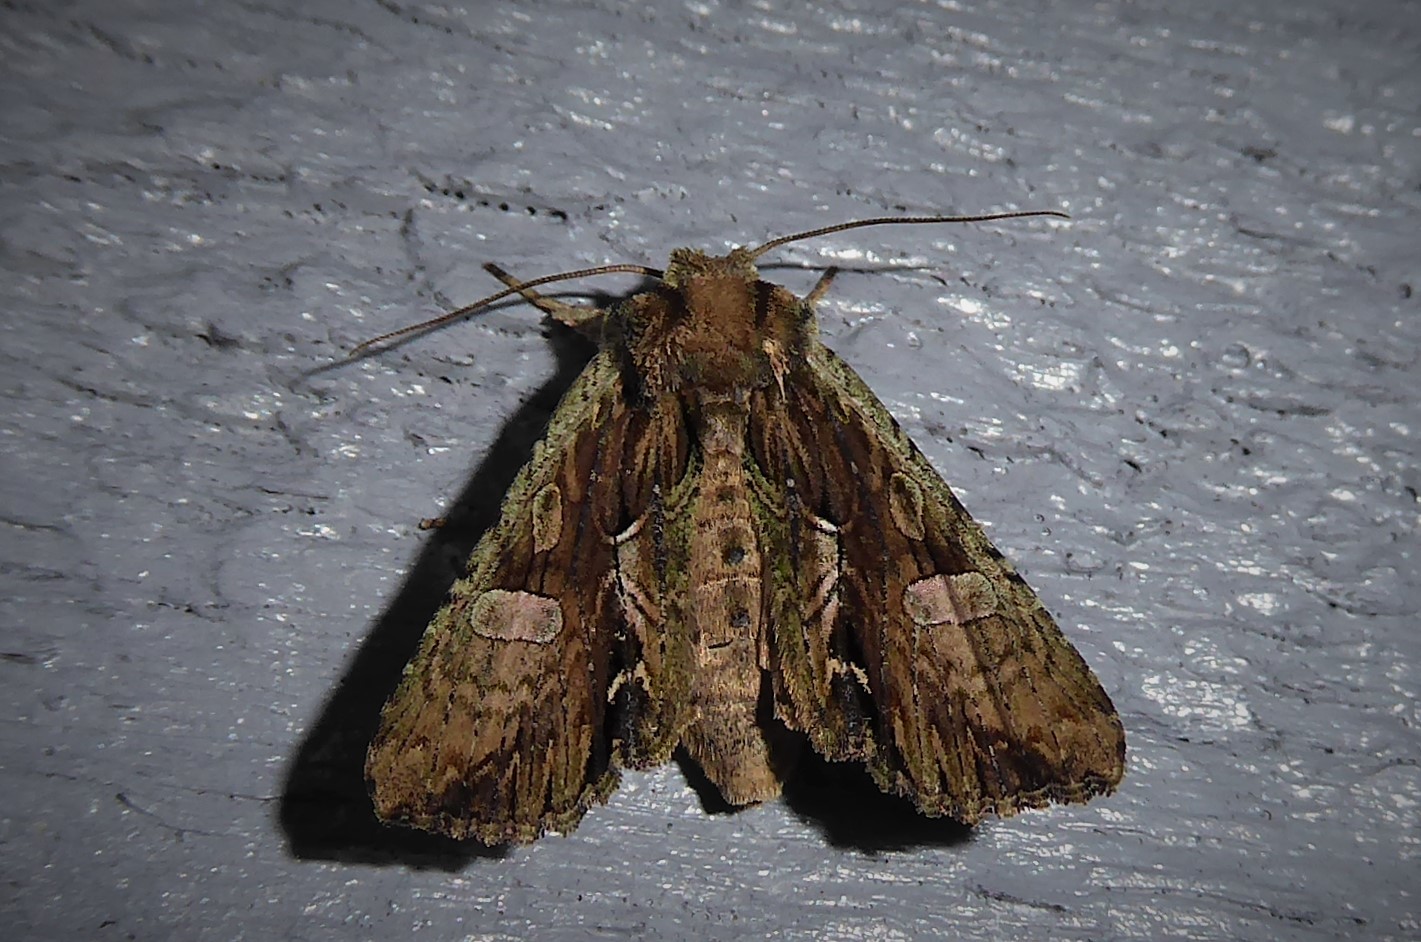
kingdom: Animalia
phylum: Arthropoda
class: Insecta
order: Lepidoptera
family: Noctuidae
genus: Meterana
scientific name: Meterana decorata
